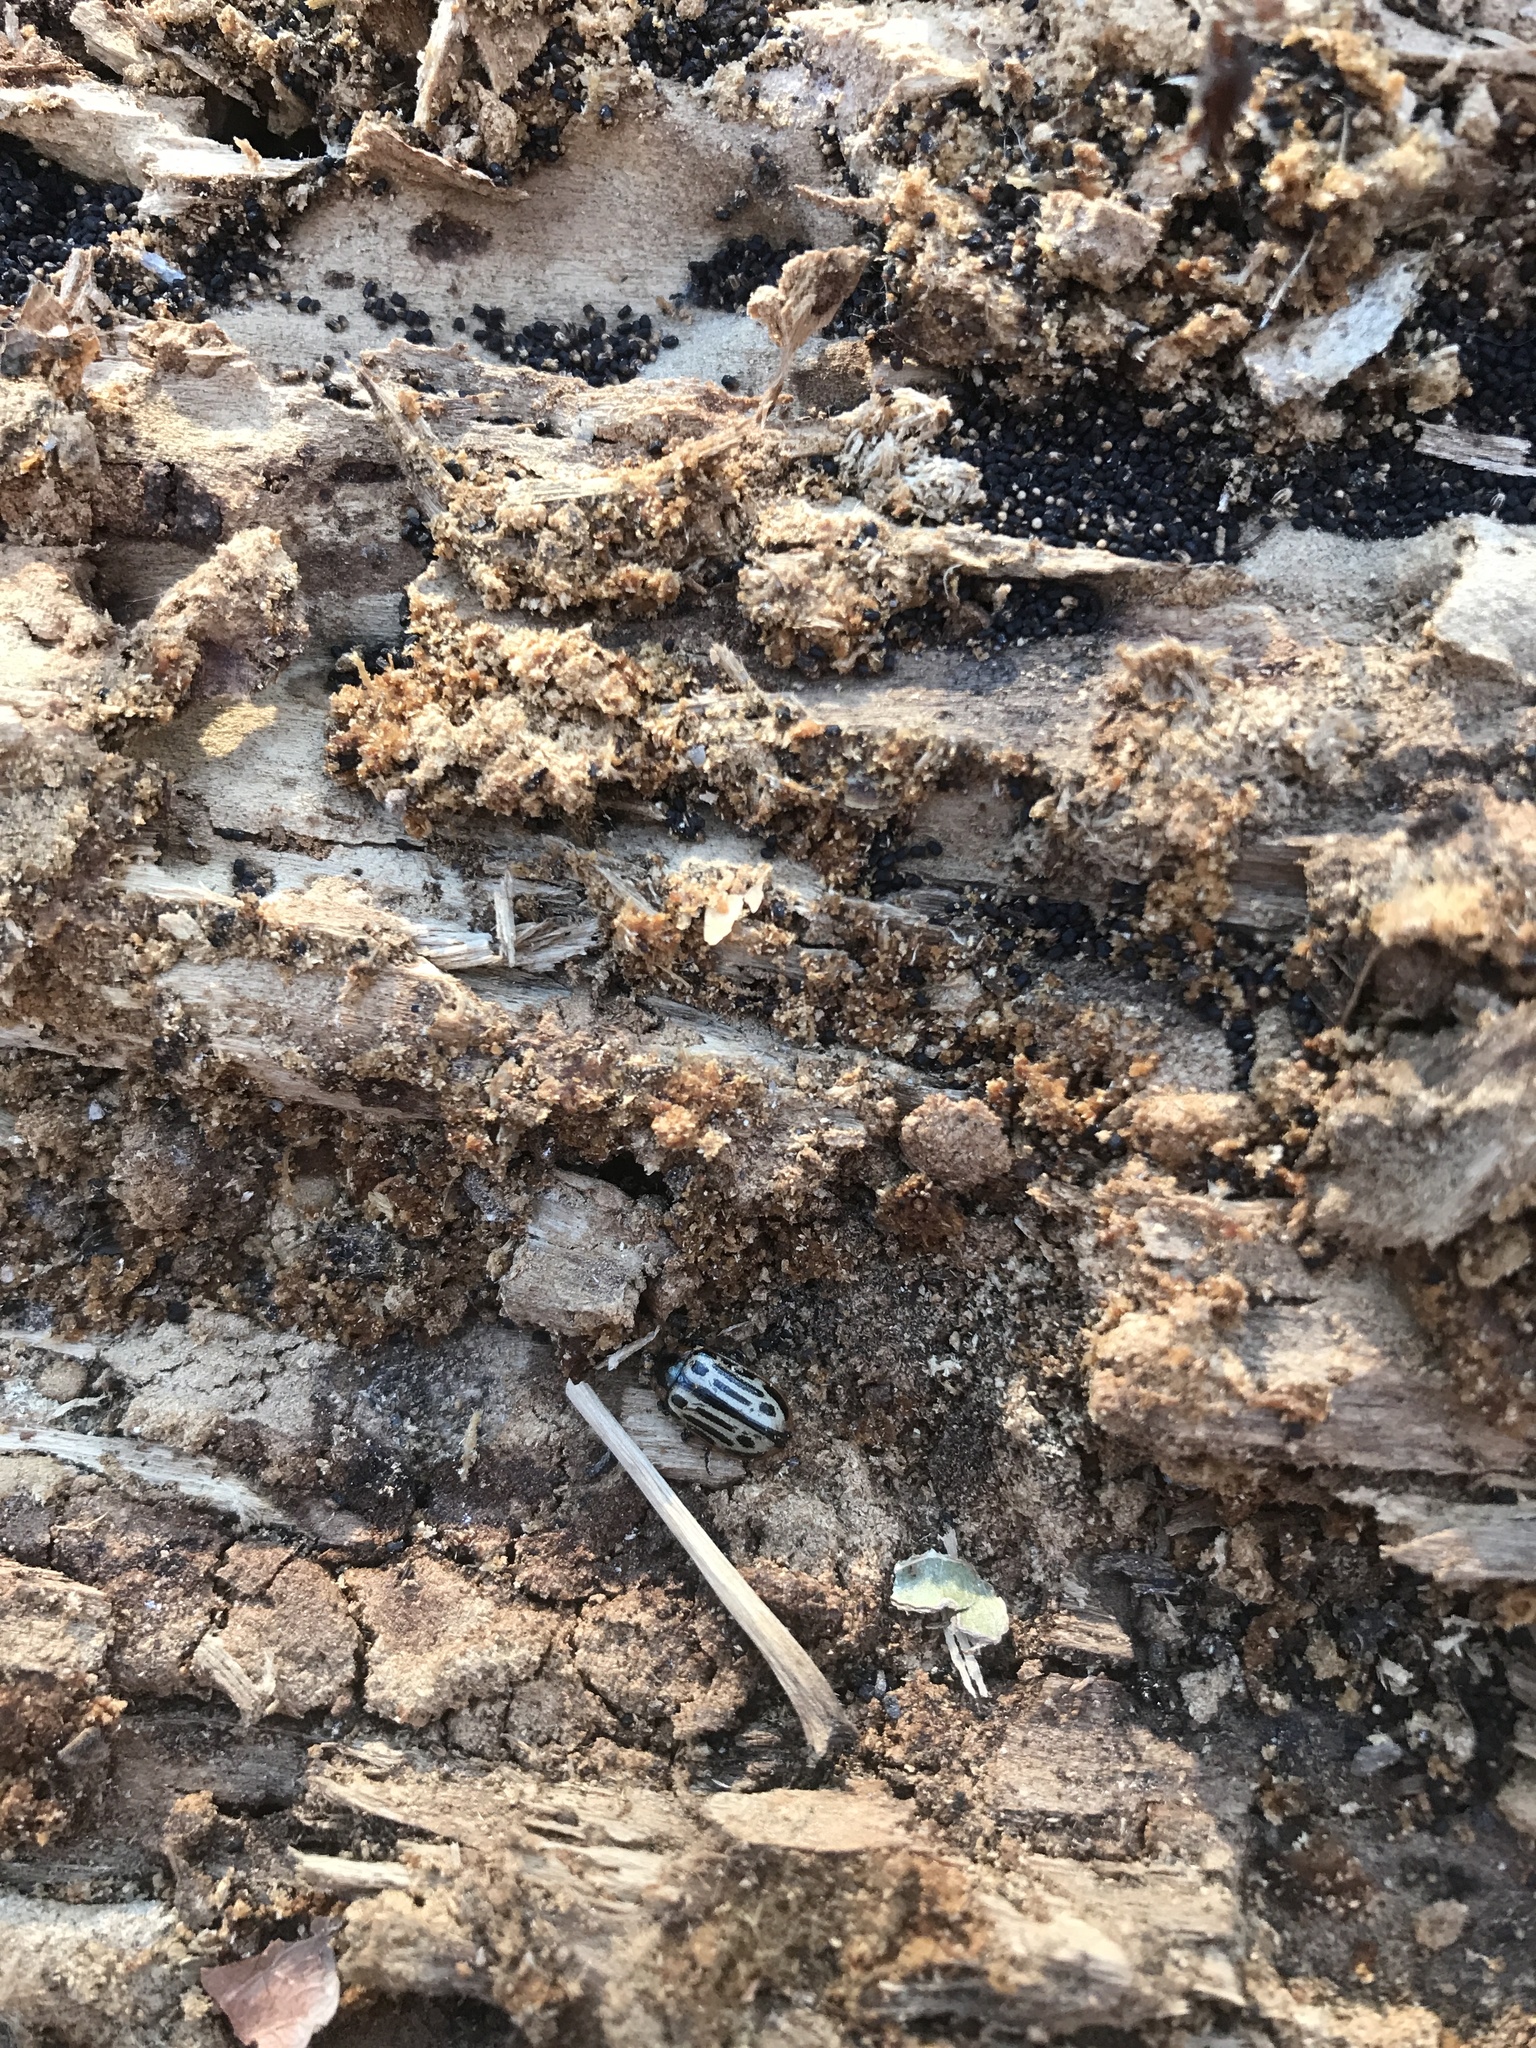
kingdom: Animalia
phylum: Arthropoda
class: Insecta
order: Coleoptera
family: Chrysomelidae
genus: Aethiopocassis
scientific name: Aethiopocassis scripta
